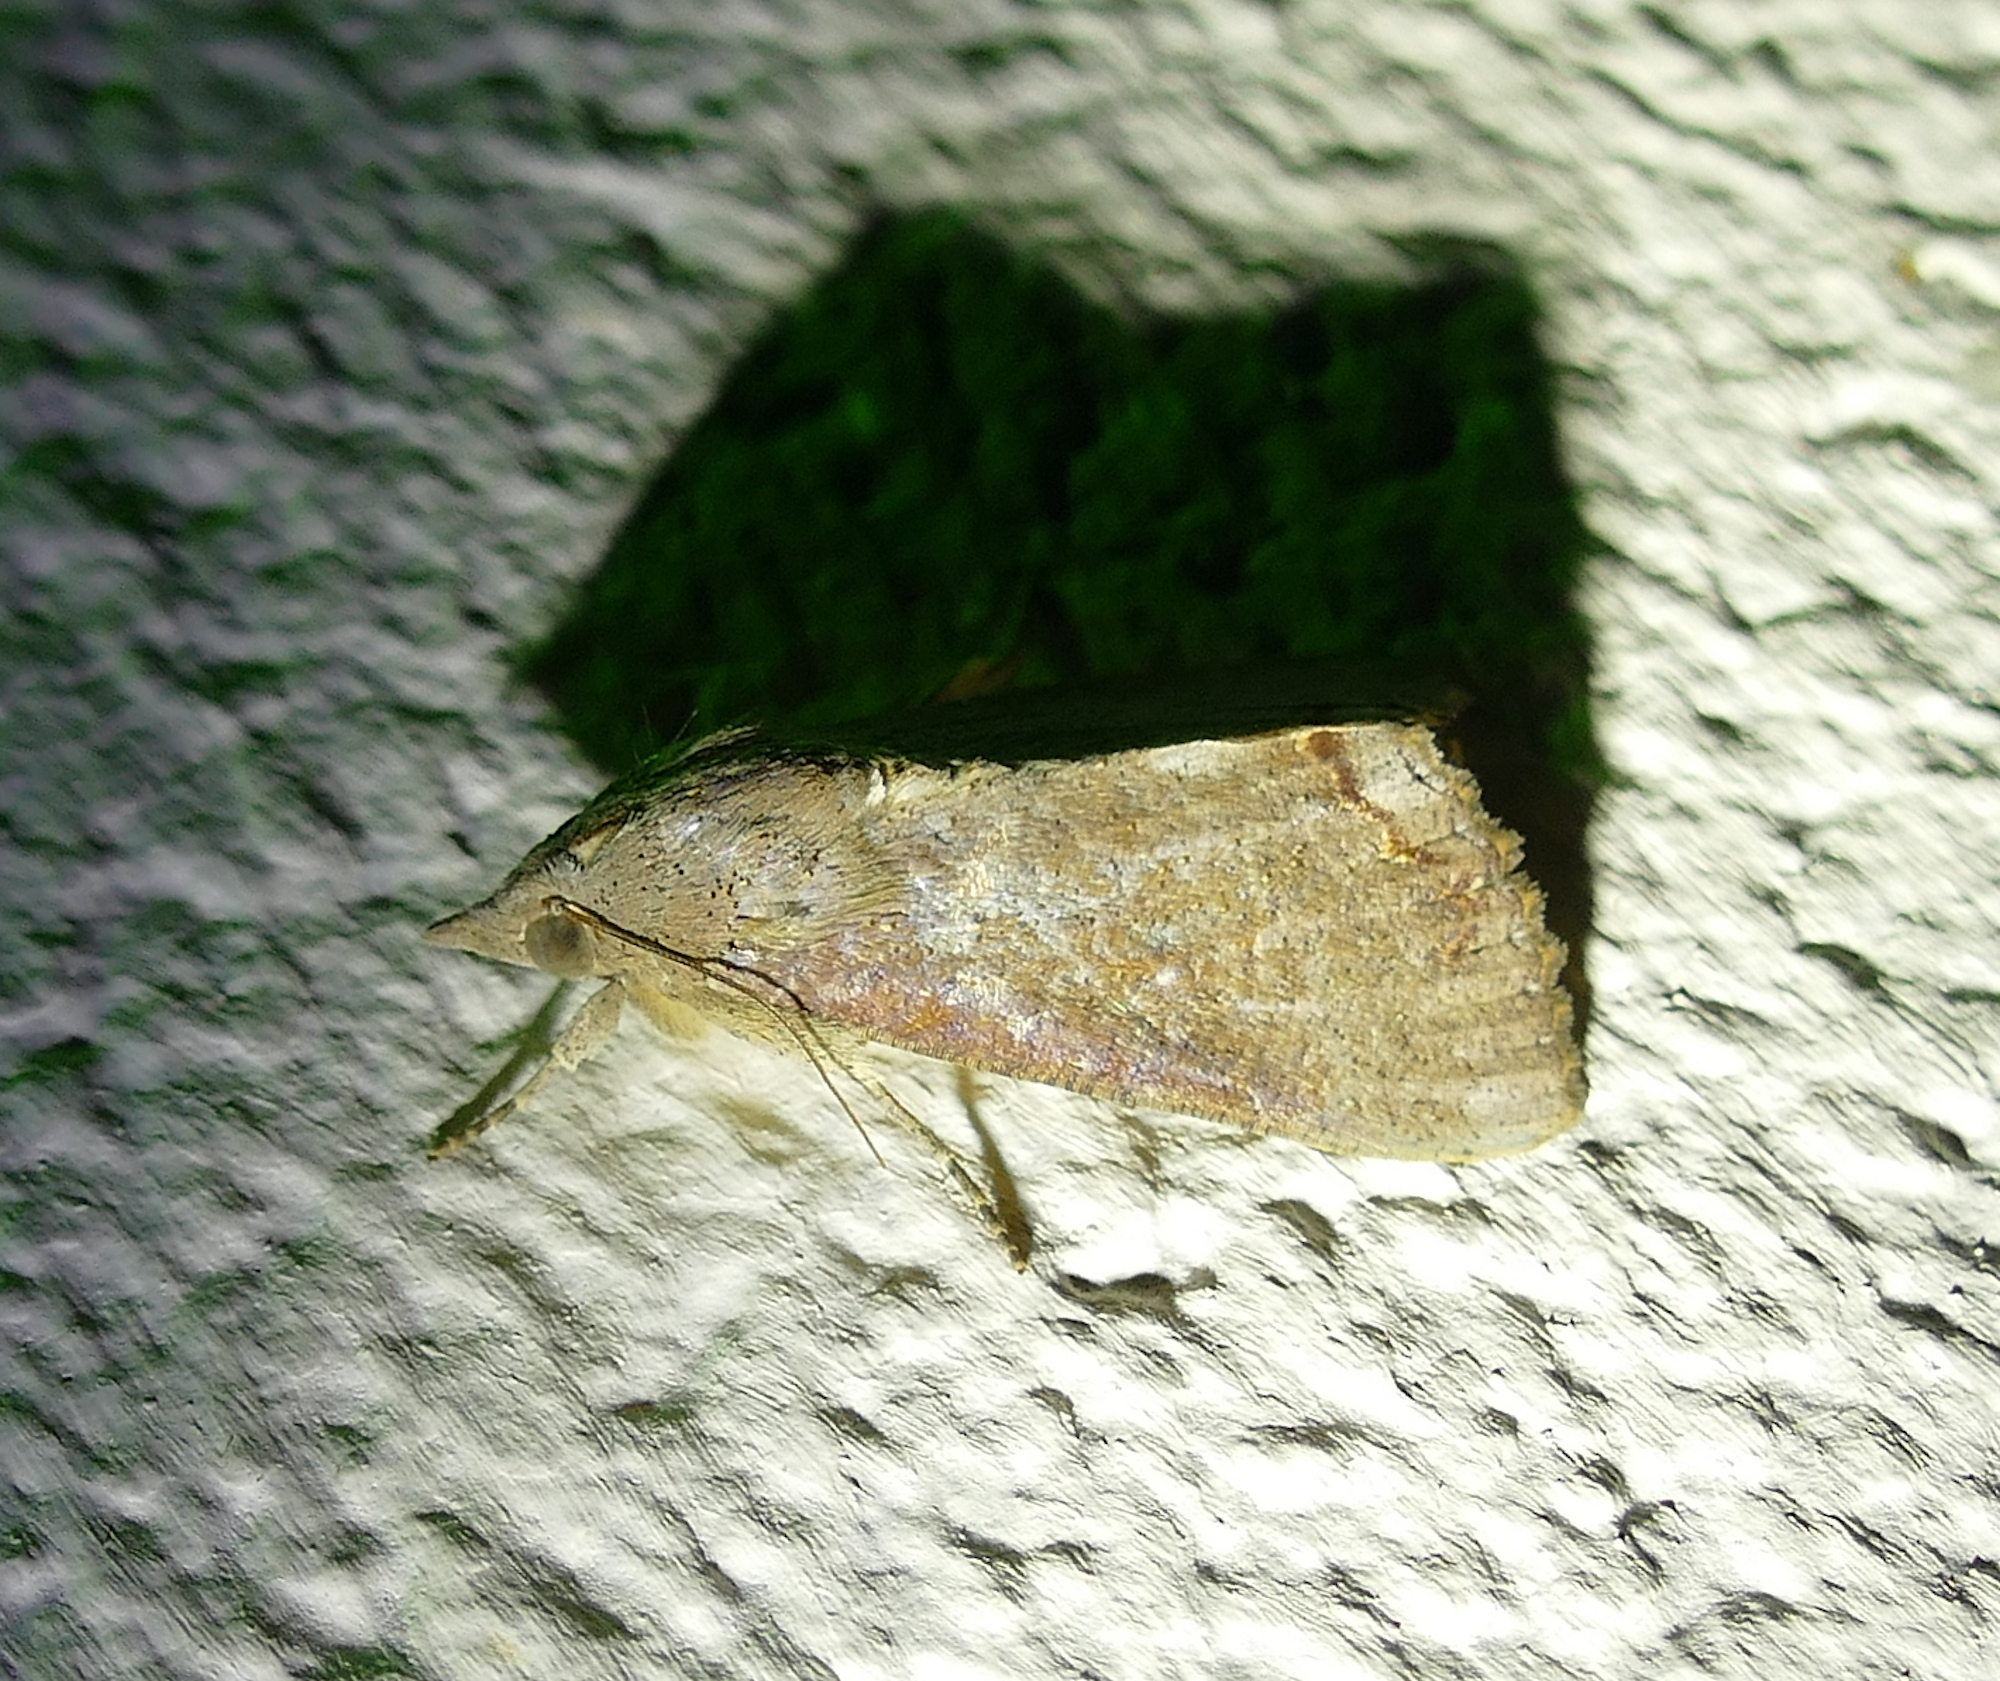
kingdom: Animalia
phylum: Arthropoda
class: Insecta
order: Lepidoptera
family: Erebidae
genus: Hypocala
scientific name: Hypocala andremona
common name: Hypocala moth
